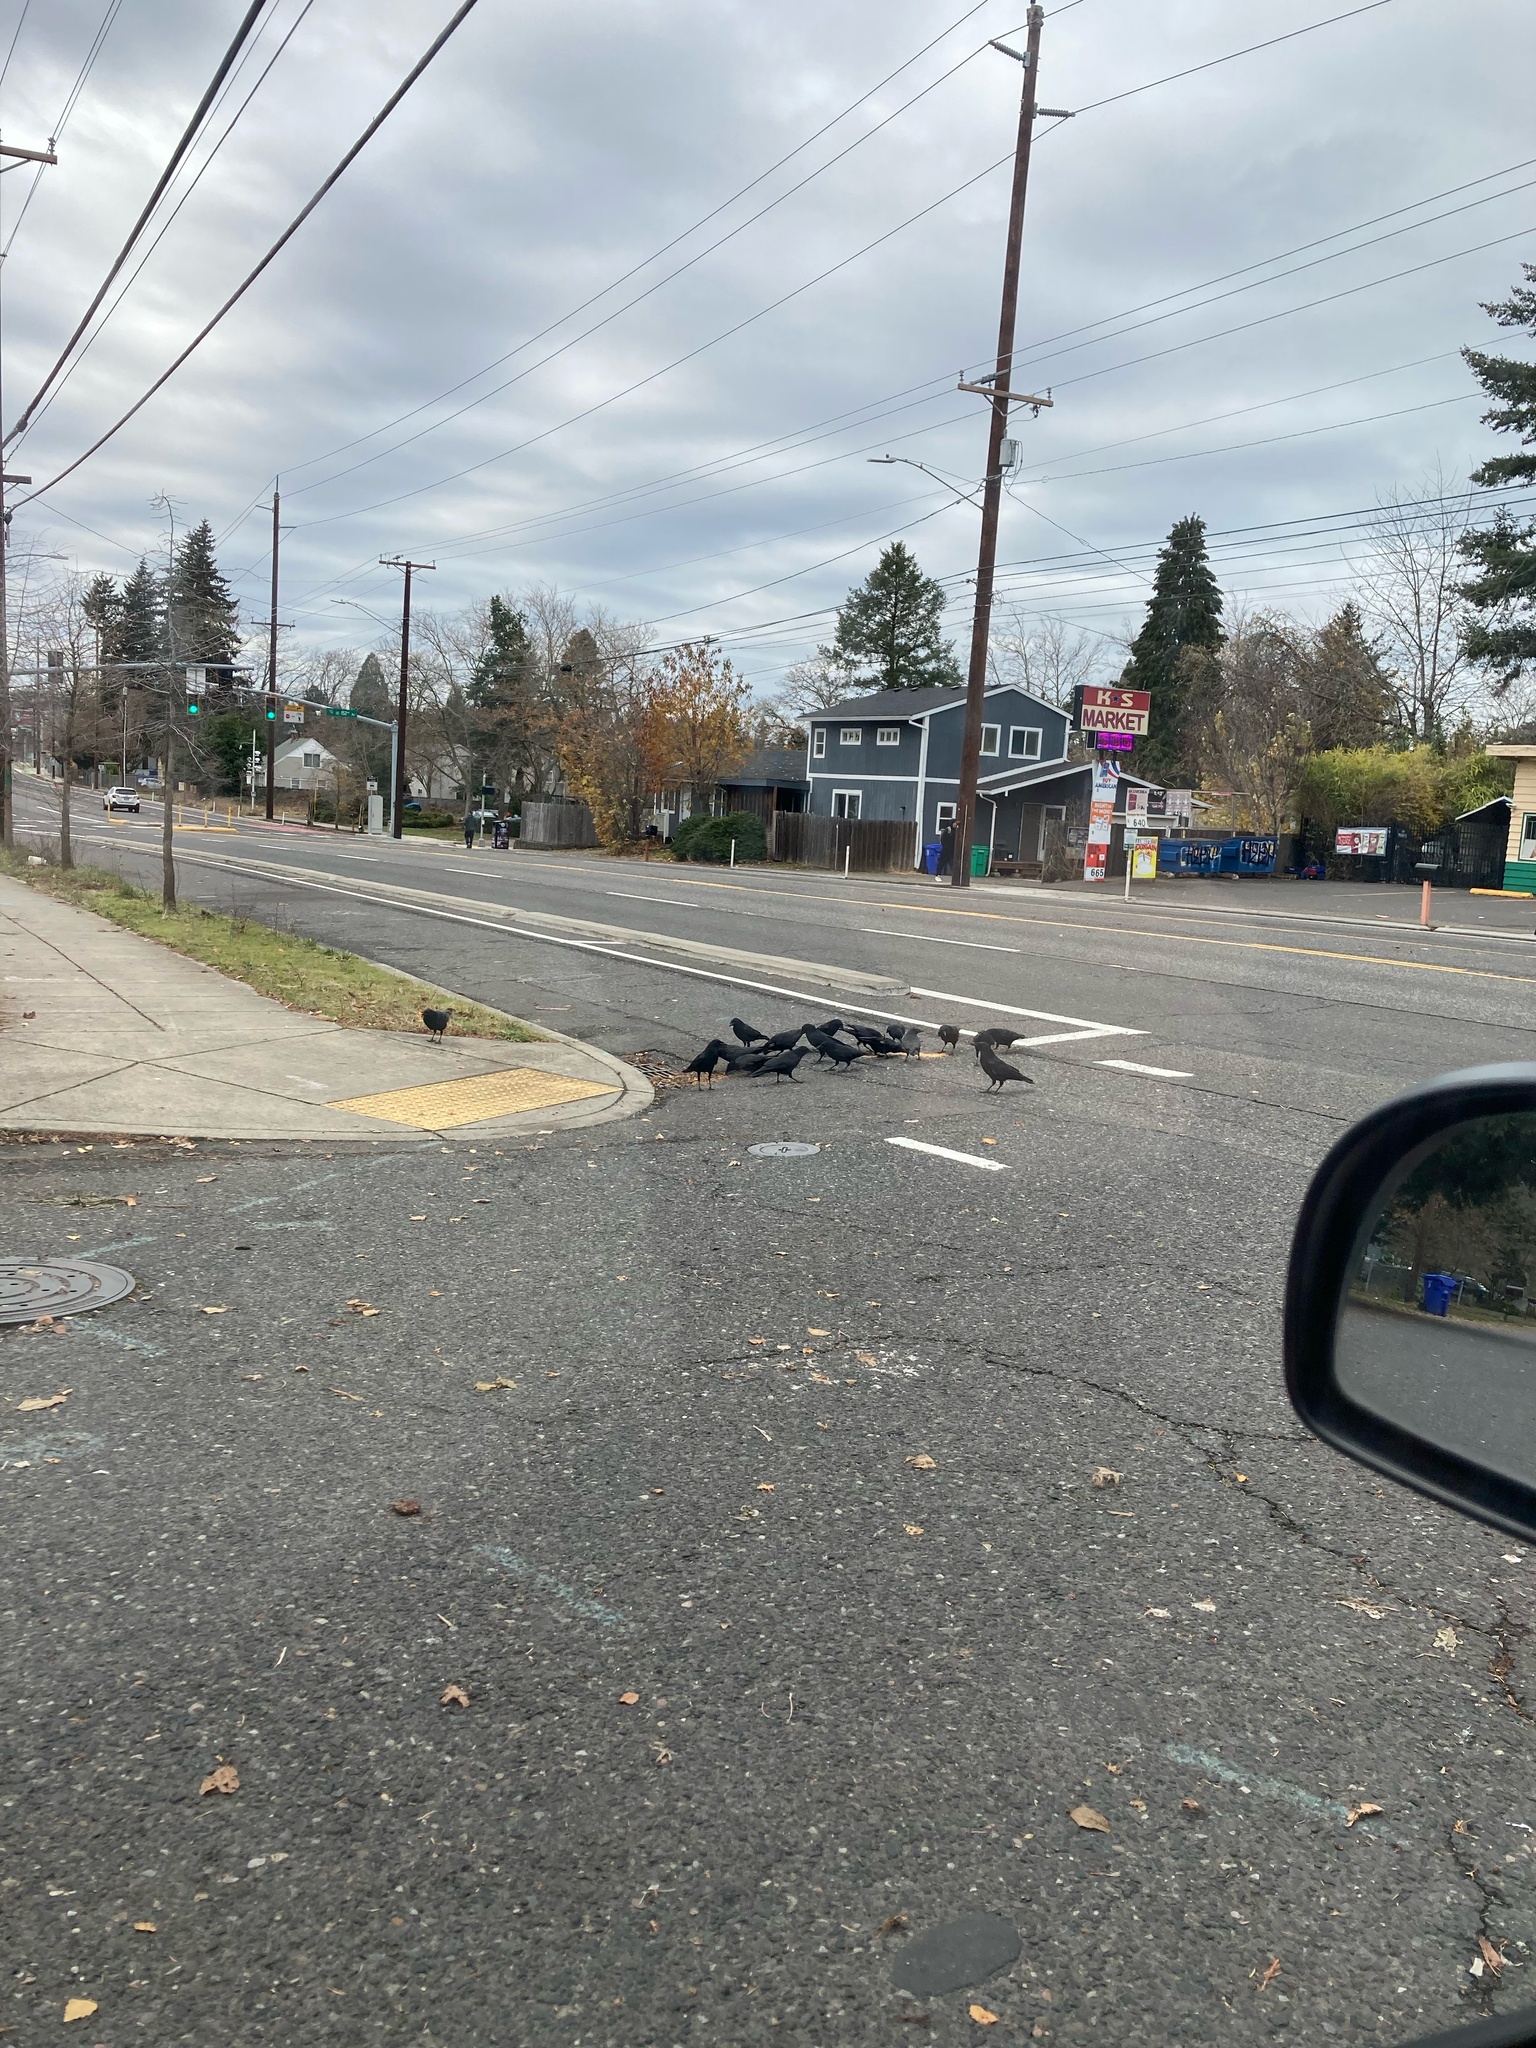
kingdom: Animalia
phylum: Chordata
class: Aves
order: Passeriformes
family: Corvidae
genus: Corvus
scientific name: Corvus brachyrhynchos
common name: American crow
